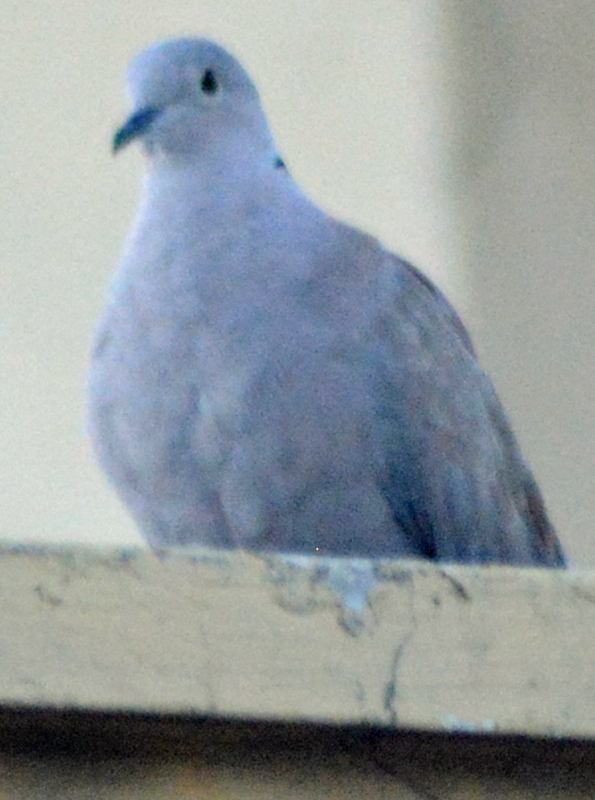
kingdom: Animalia
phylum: Chordata
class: Aves
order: Columbiformes
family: Columbidae
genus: Streptopelia
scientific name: Streptopelia decaocto
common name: Eurasian collared dove
